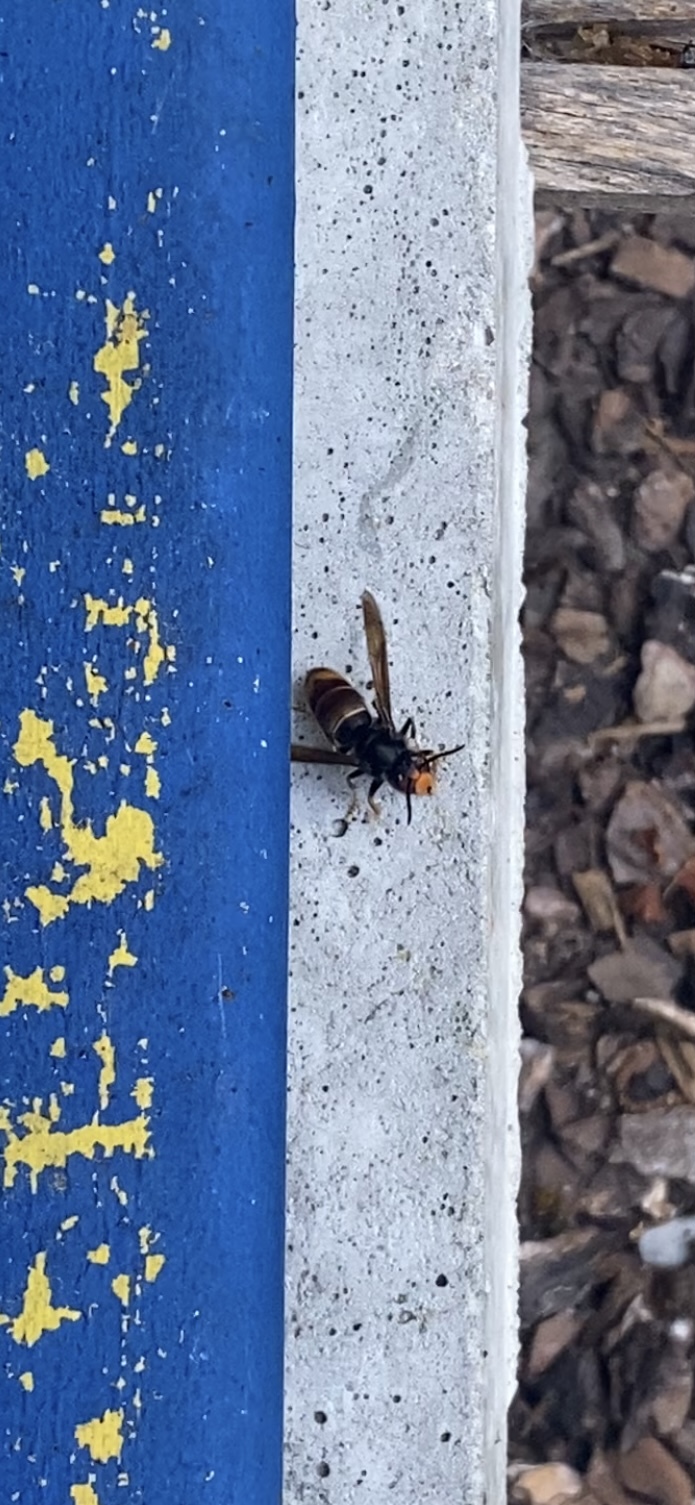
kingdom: Animalia
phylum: Arthropoda
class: Insecta
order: Hymenoptera
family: Vespidae
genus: Vespa
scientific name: Vespa velutina
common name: Asian hornet
